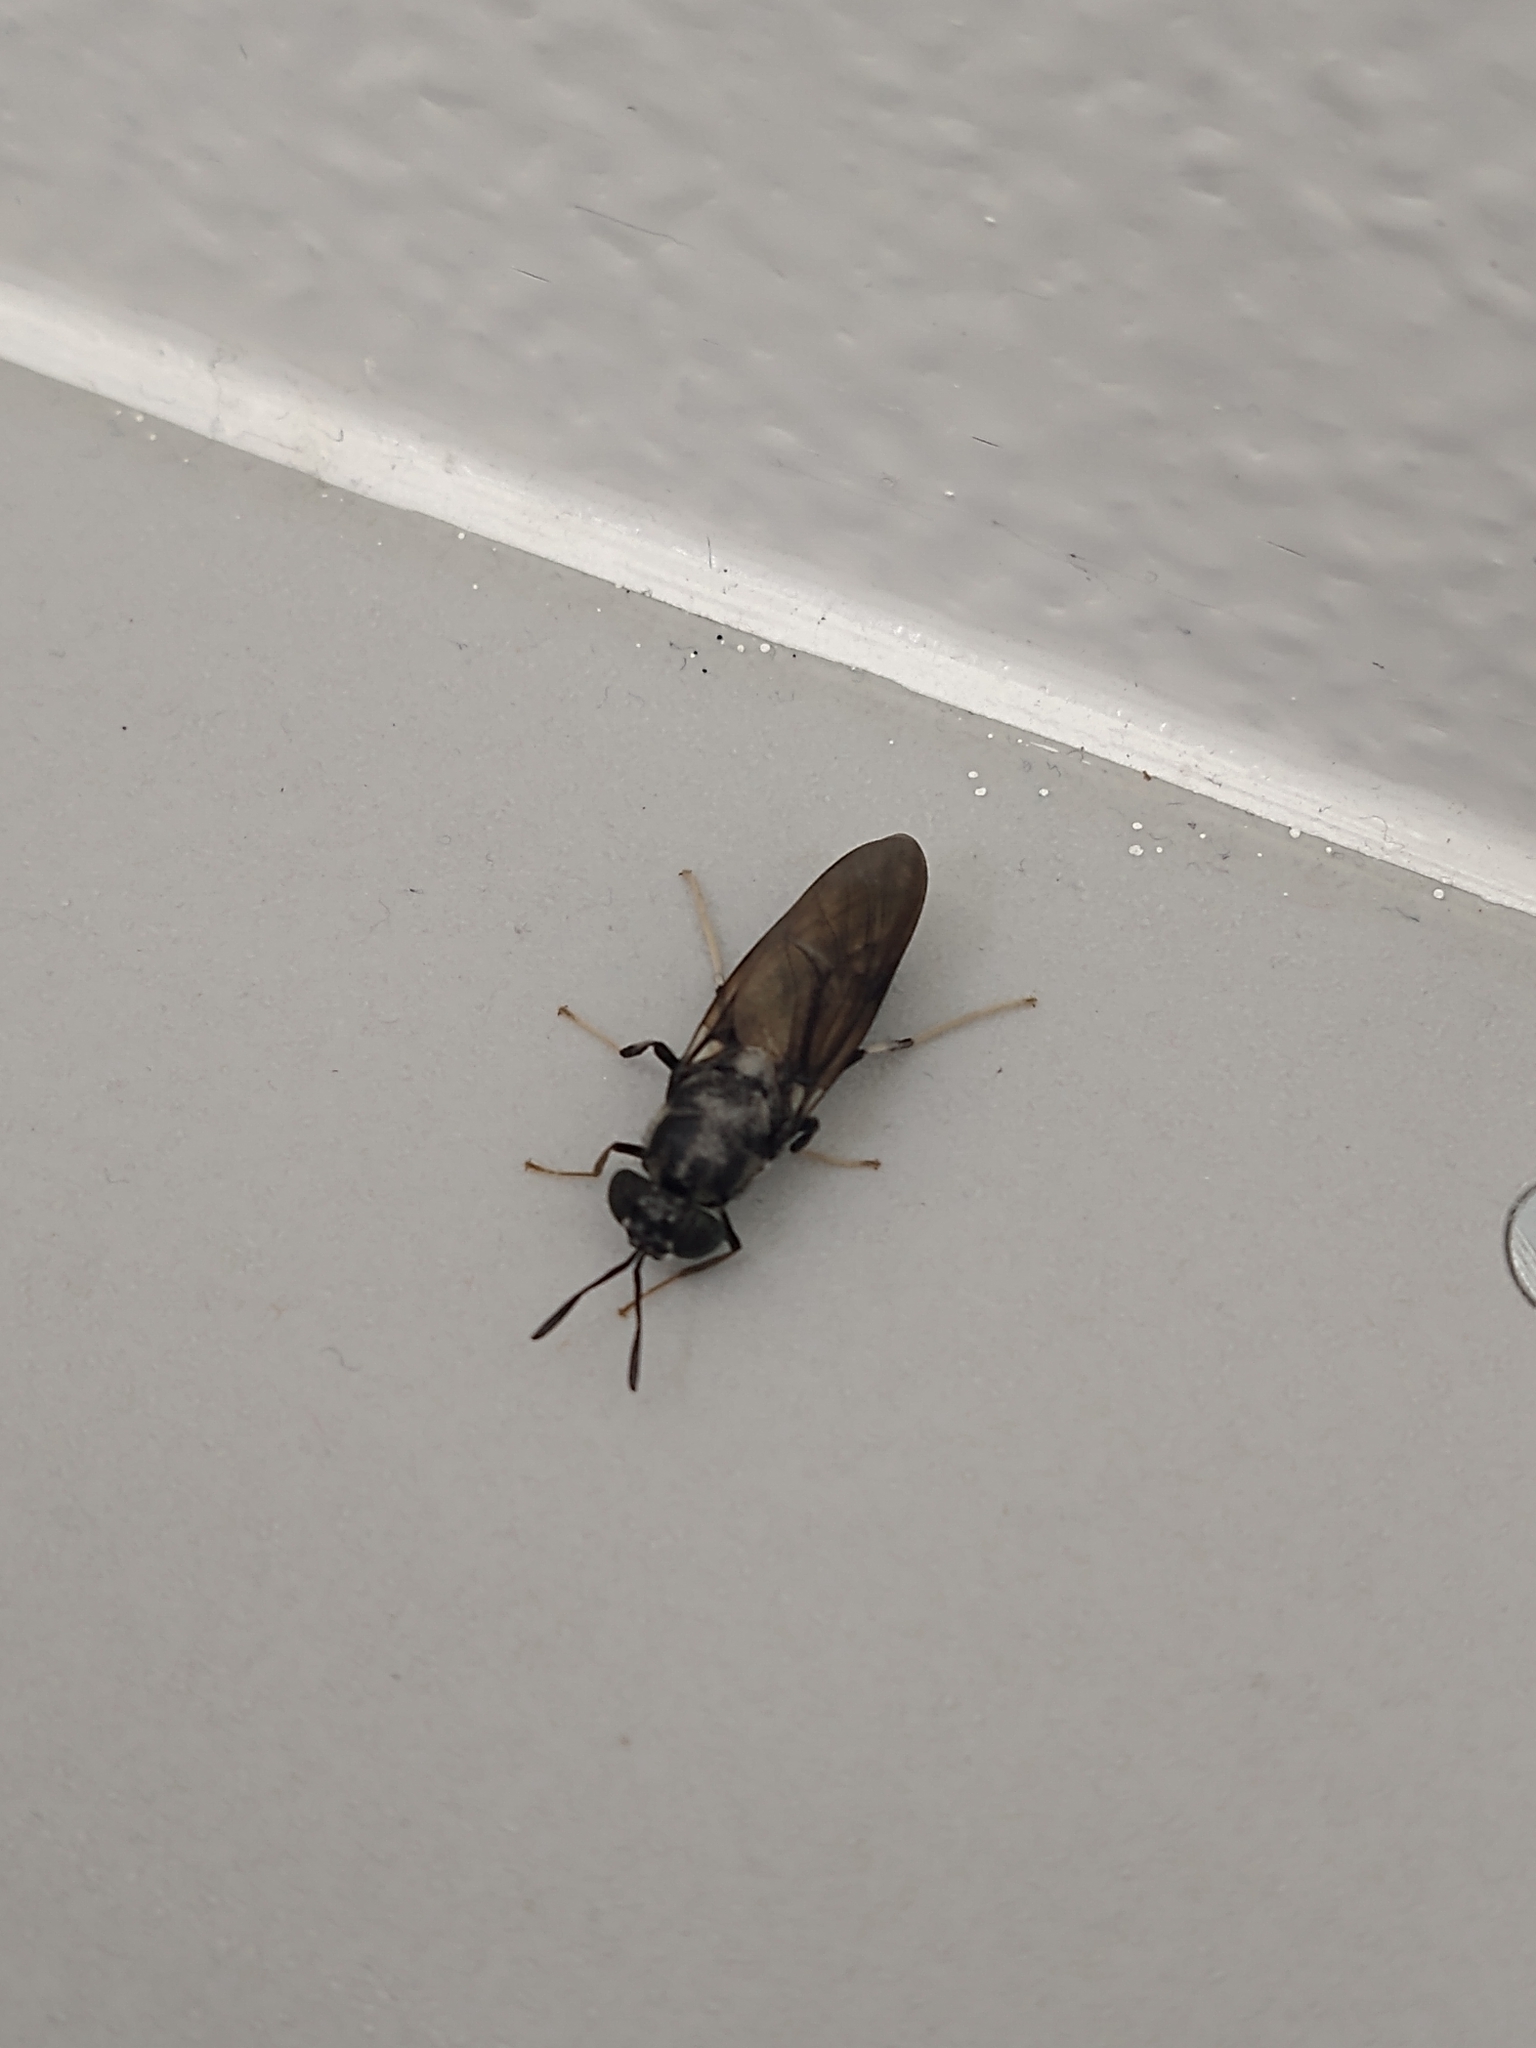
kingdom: Animalia
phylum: Arthropoda
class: Insecta
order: Diptera
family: Stratiomyidae
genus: Hermetia
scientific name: Hermetia illucens
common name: Black soldier fly
